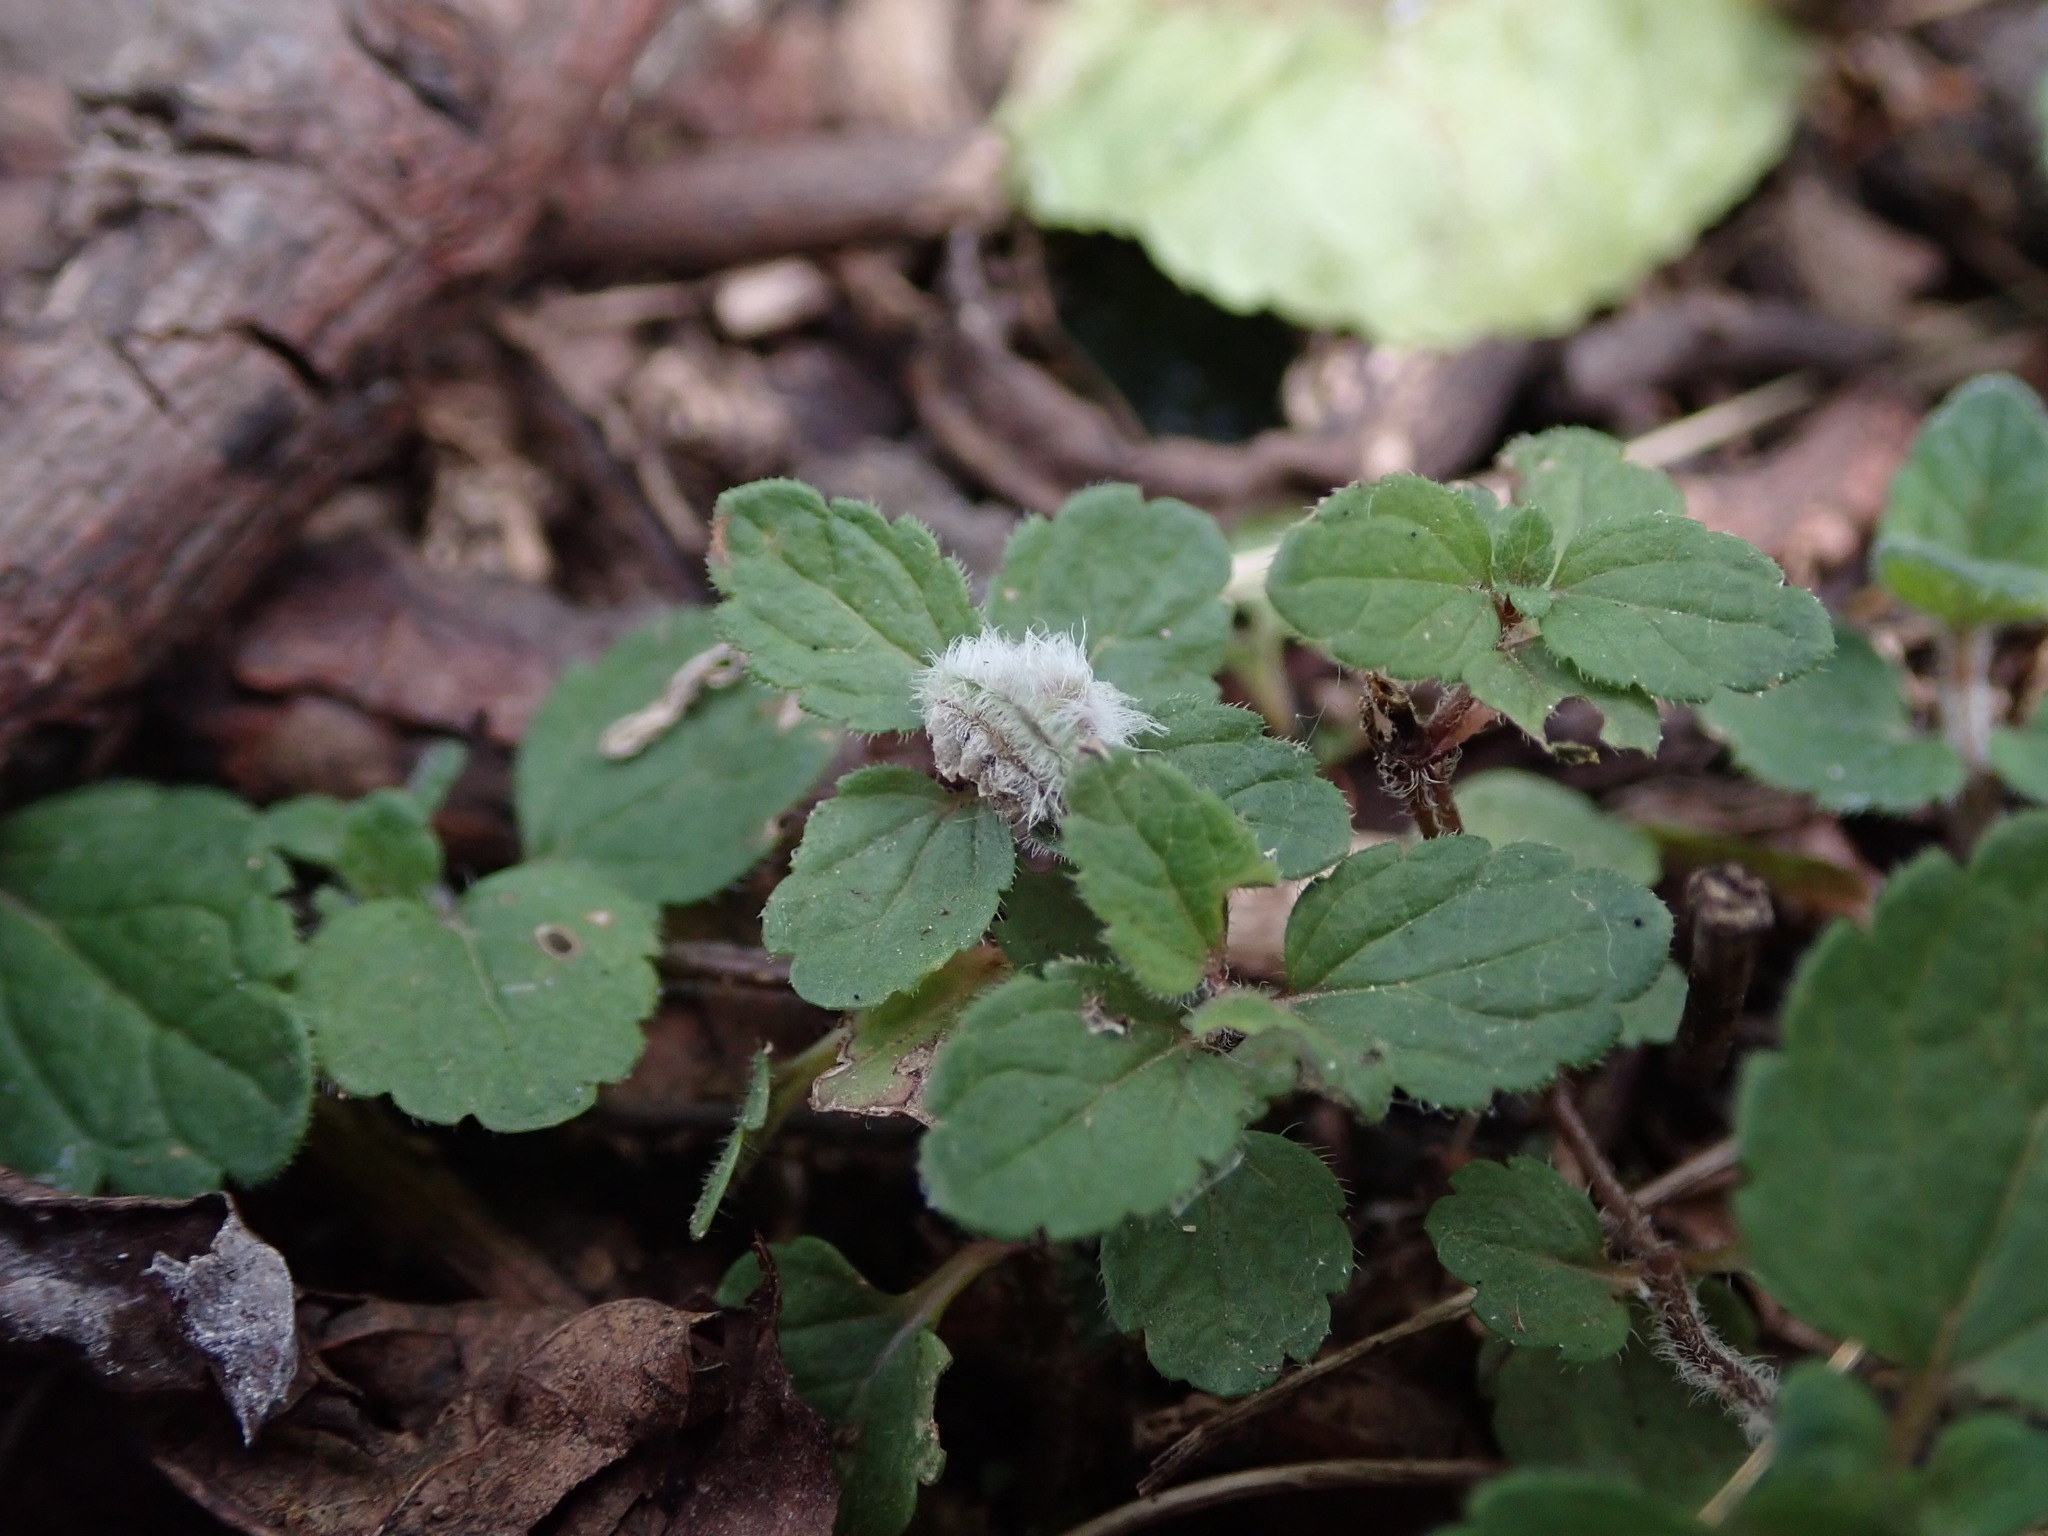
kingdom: Animalia
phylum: Arthropoda
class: Insecta
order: Diptera
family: Cecidomyiidae
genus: Jaapiella
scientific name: Jaapiella veronicae
